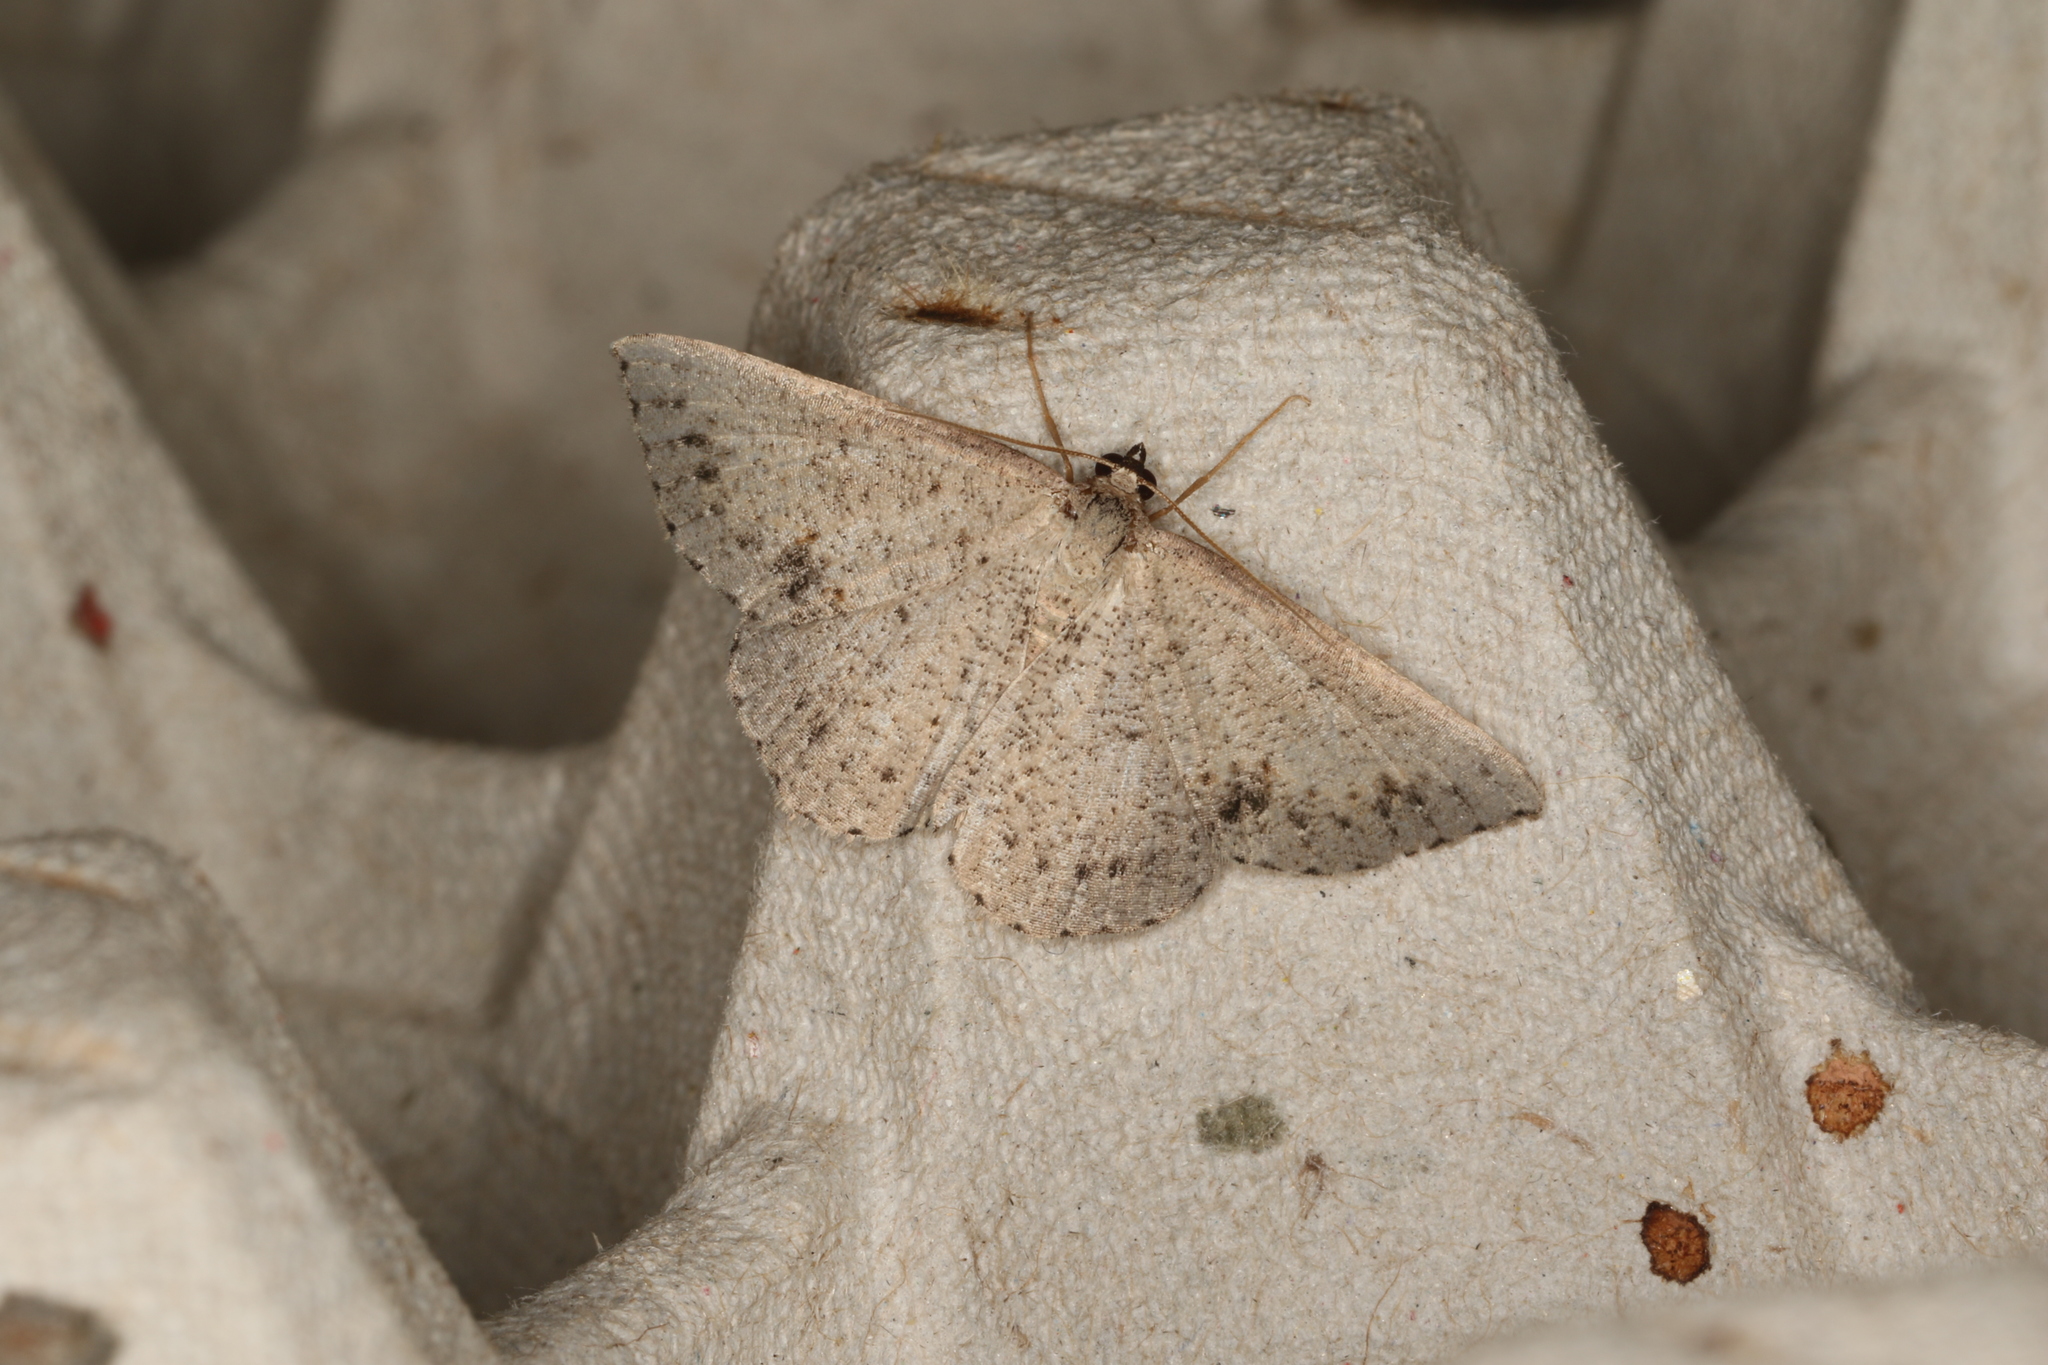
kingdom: Animalia
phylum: Arthropoda
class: Insecta
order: Lepidoptera
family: Geometridae
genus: Taxeotis
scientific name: Taxeotis intextata
